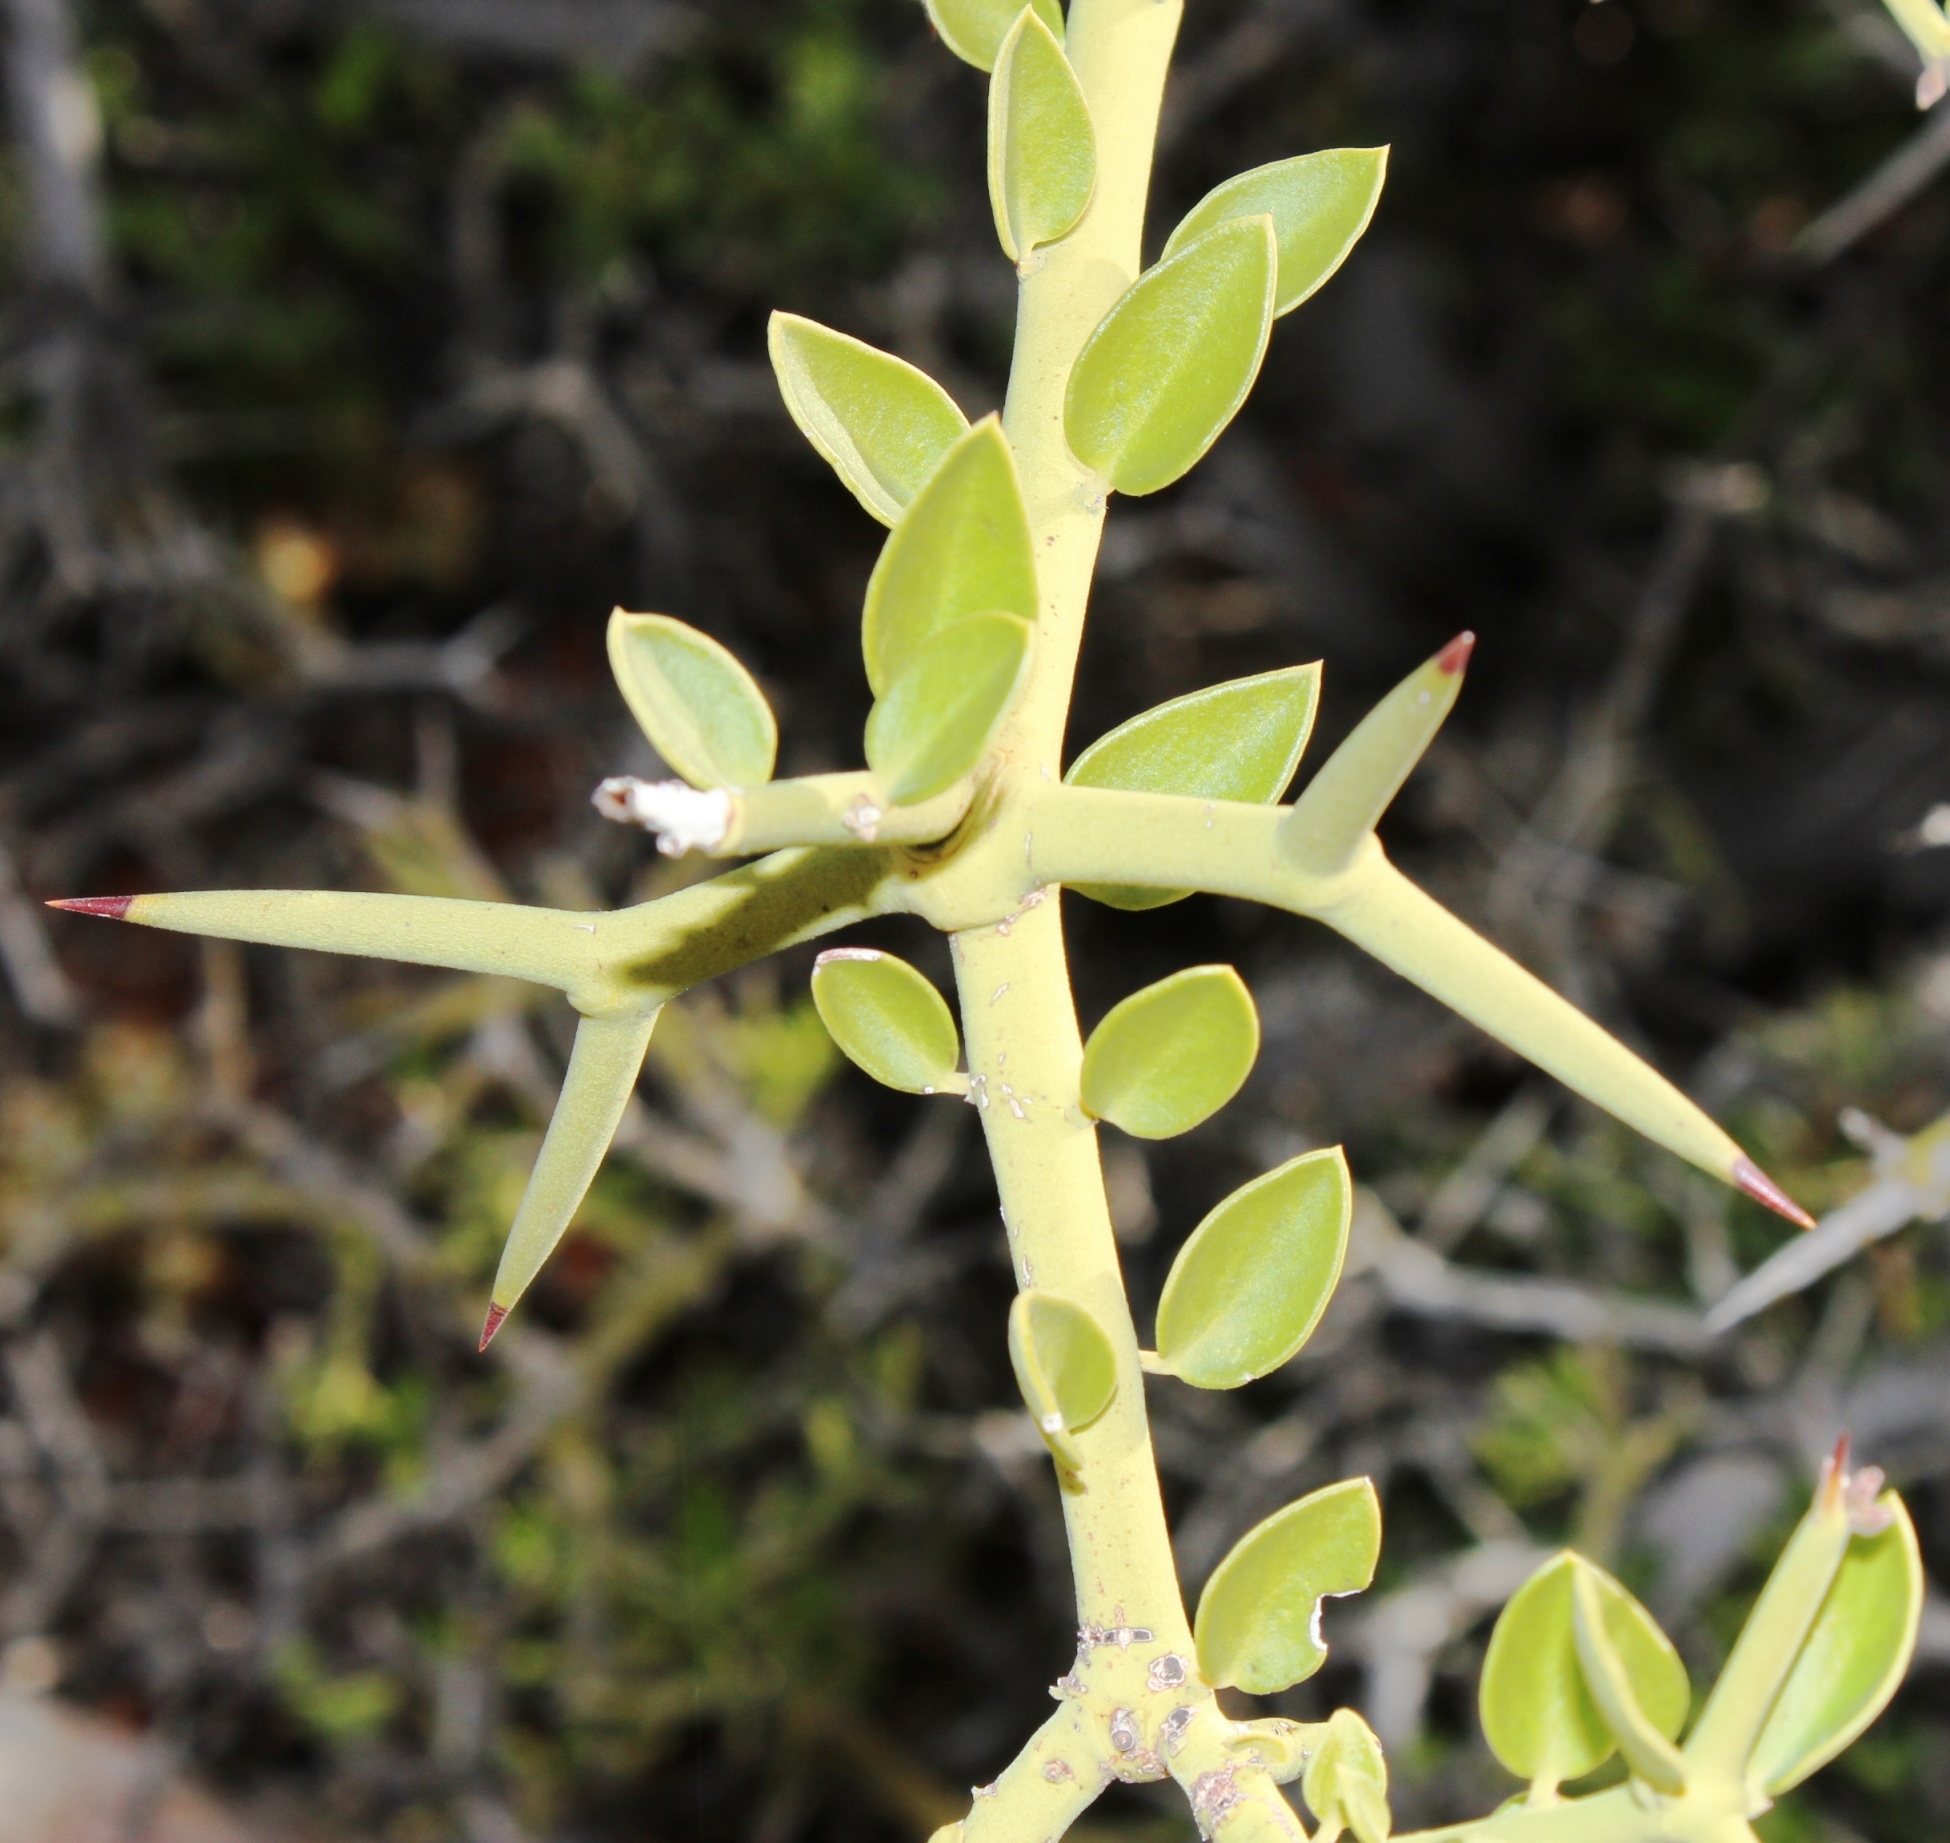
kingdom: Plantae
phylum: Tracheophyta
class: Magnoliopsida
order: Gentianales
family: Apocynaceae
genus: Carissa
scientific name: Carissa haematocarpa
